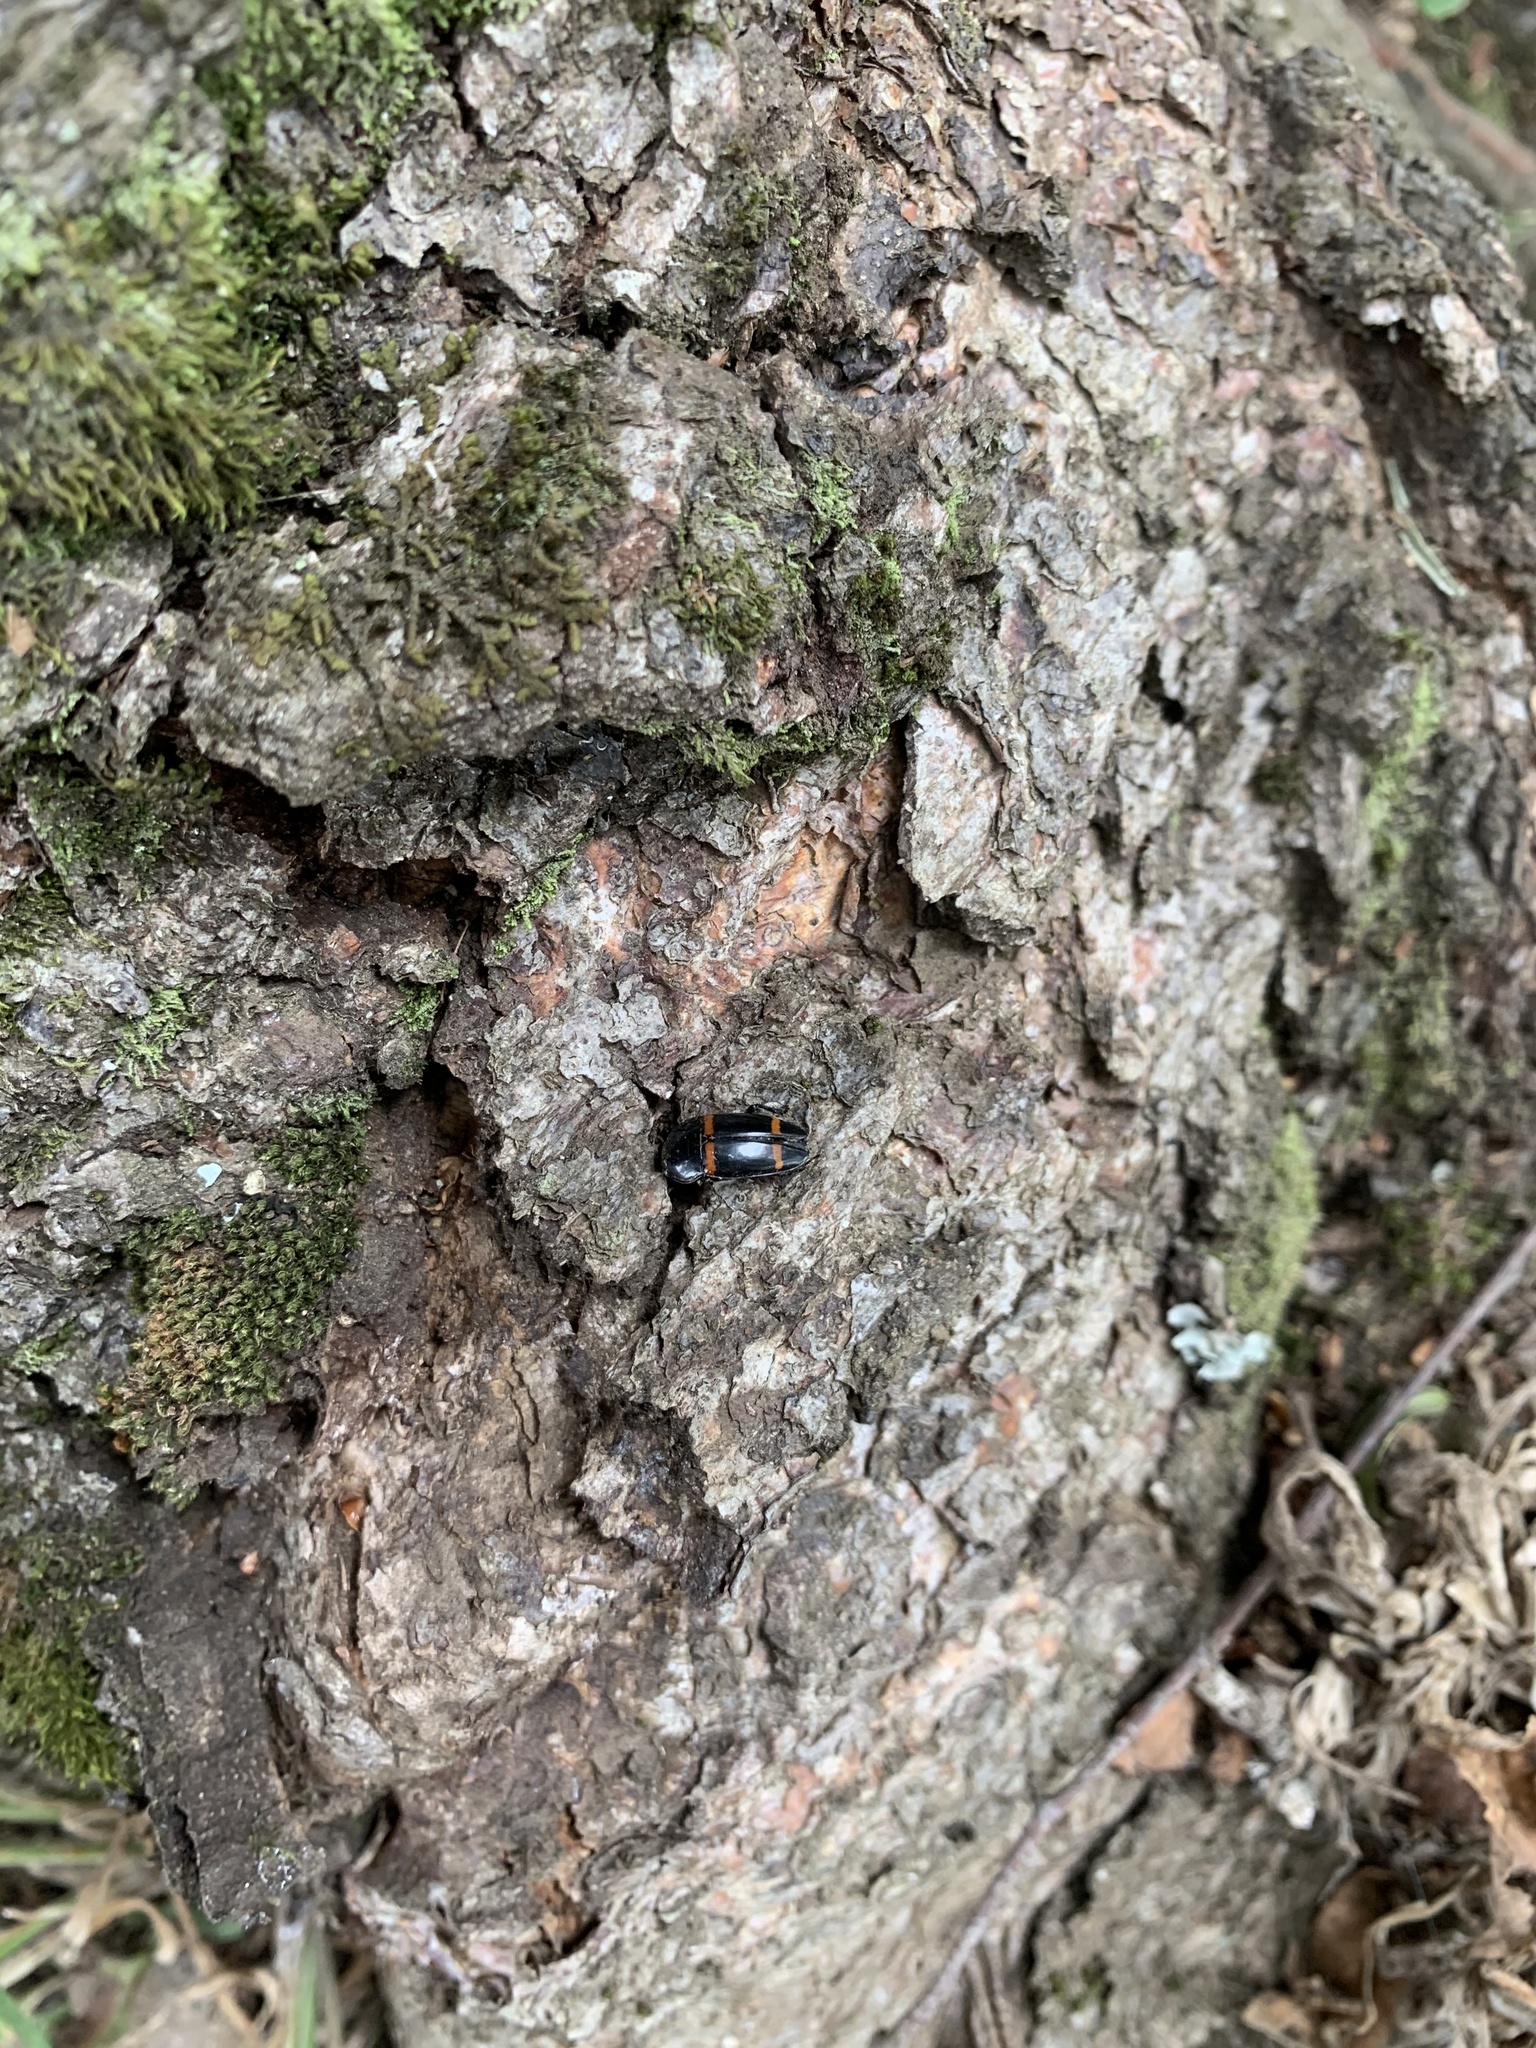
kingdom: Animalia
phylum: Arthropoda
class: Insecta
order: Coleoptera
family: Nitidulidae
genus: Lioschema
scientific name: Lioschema
